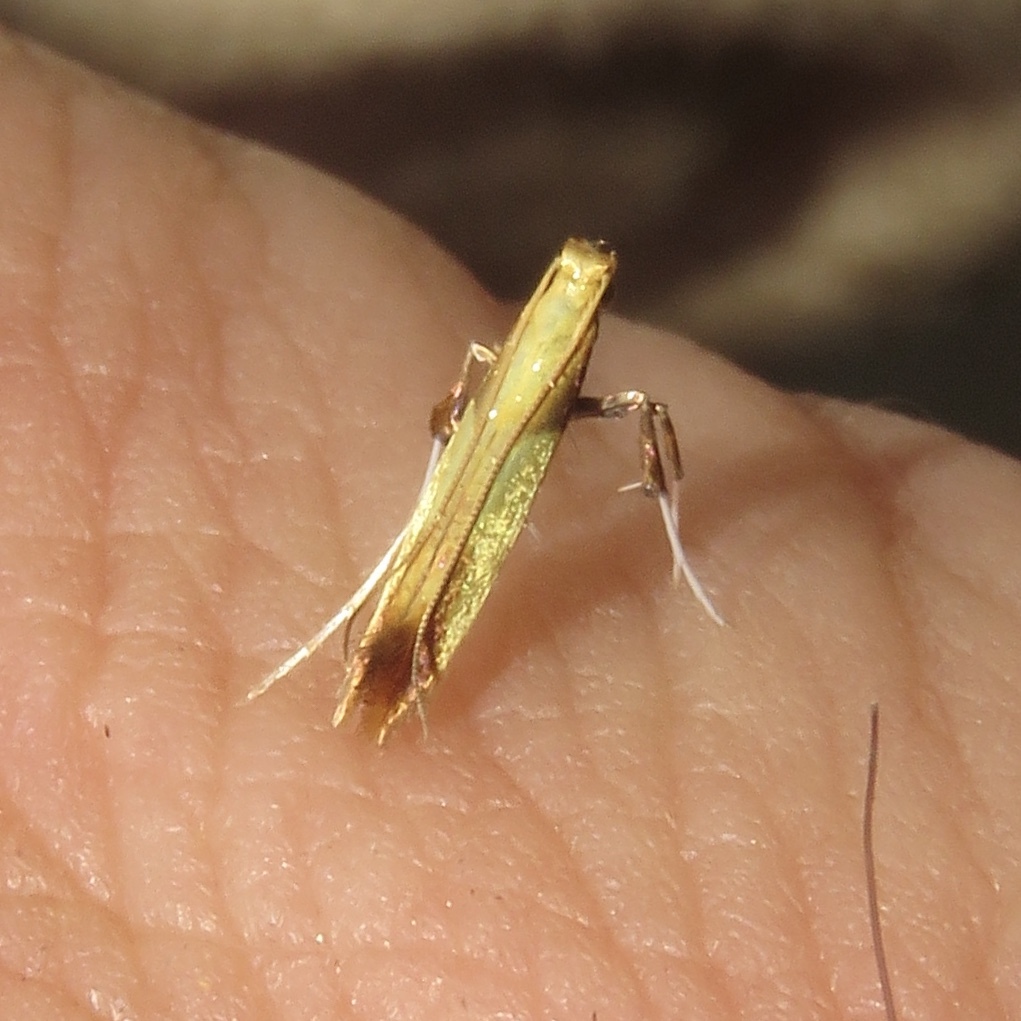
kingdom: Animalia
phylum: Arthropoda
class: Insecta
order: Lepidoptera
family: Gracillariidae
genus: Caloptilia
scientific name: Caloptilia superbifrontella
